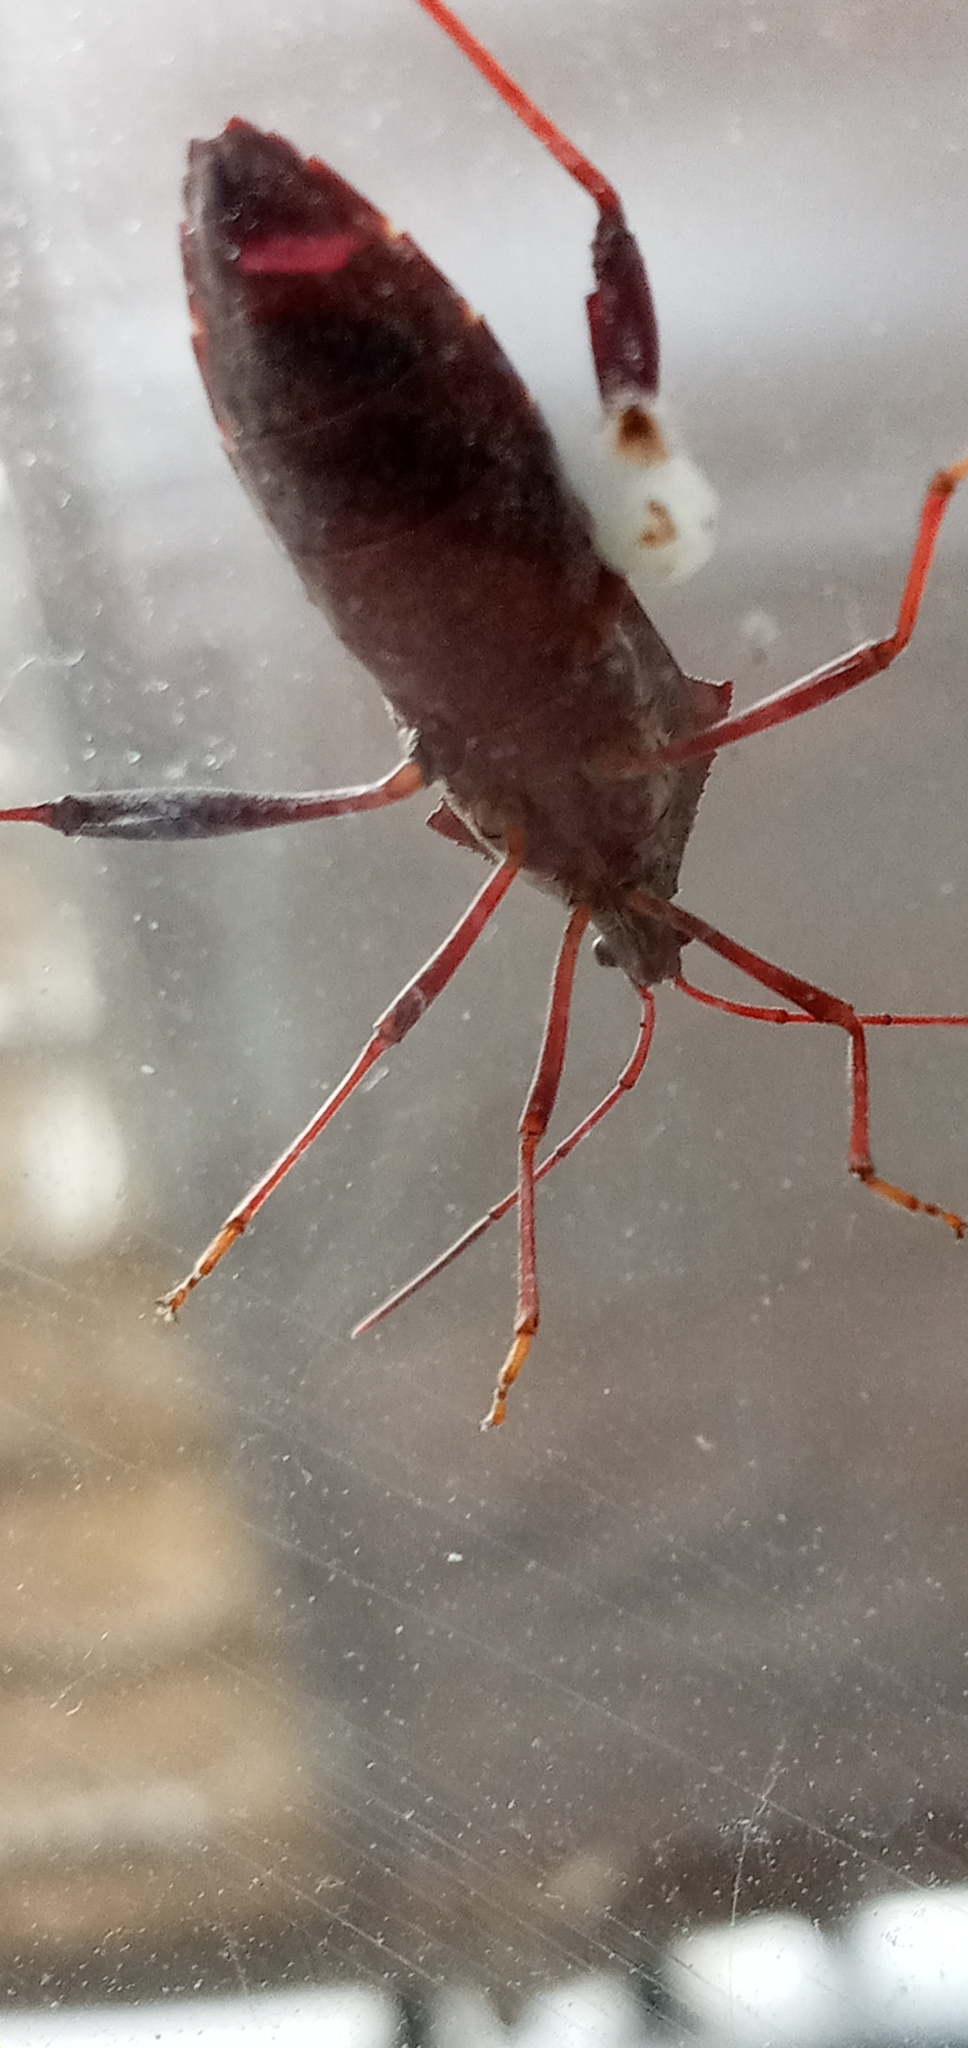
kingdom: Animalia
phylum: Arthropoda
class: Insecta
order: Hemiptera
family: Coreidae
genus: Mictis
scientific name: Mictis longicornis
